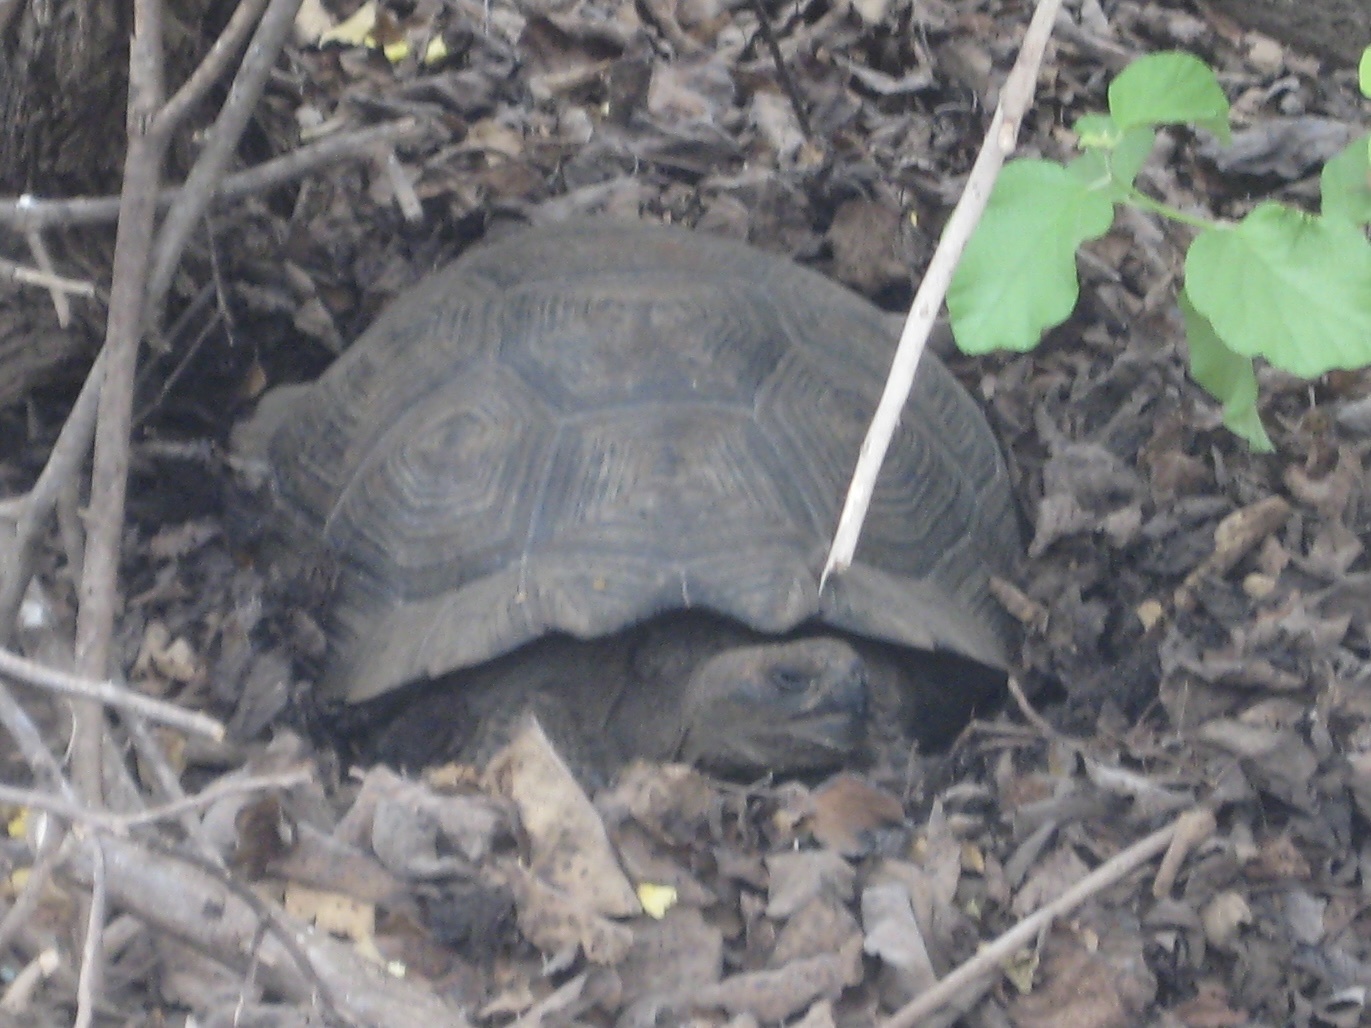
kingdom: Animalia
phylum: Chordata
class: Testudines
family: Testudinidae
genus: Chelonoidis
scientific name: Chelonoidis niger
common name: Charles island giant tortoise
